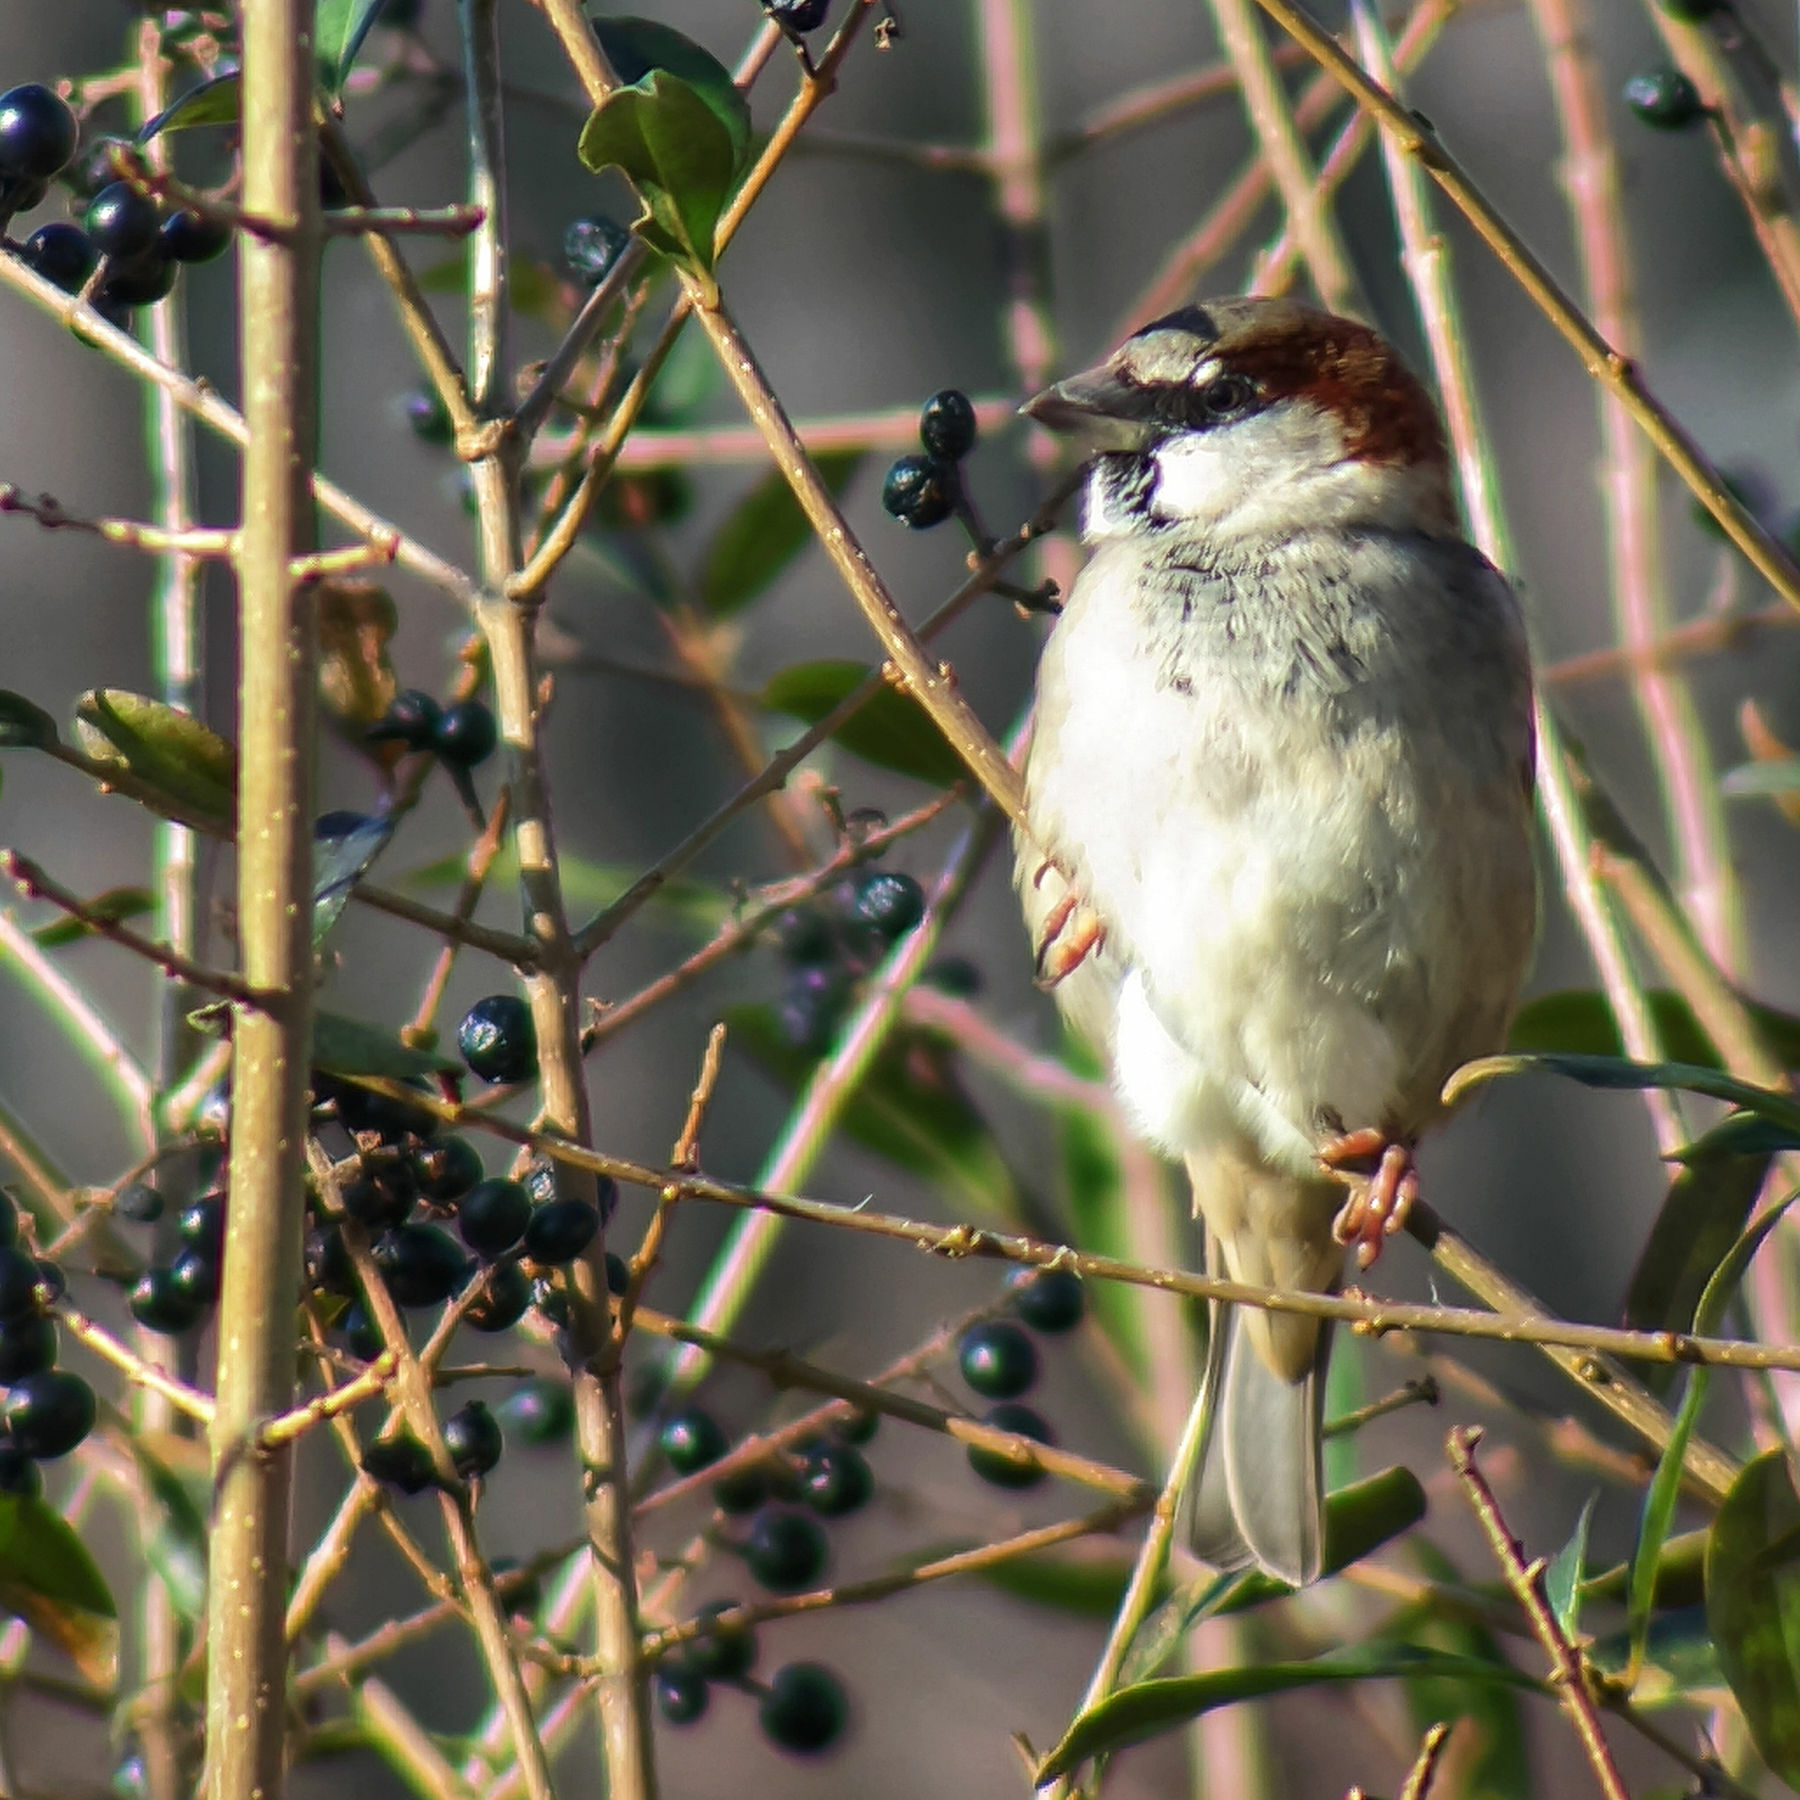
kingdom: Animalia
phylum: Chordata
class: Aves
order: Passeriformes
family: Passeridae
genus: Passer
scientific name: Passer domesticus
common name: House sparrow
